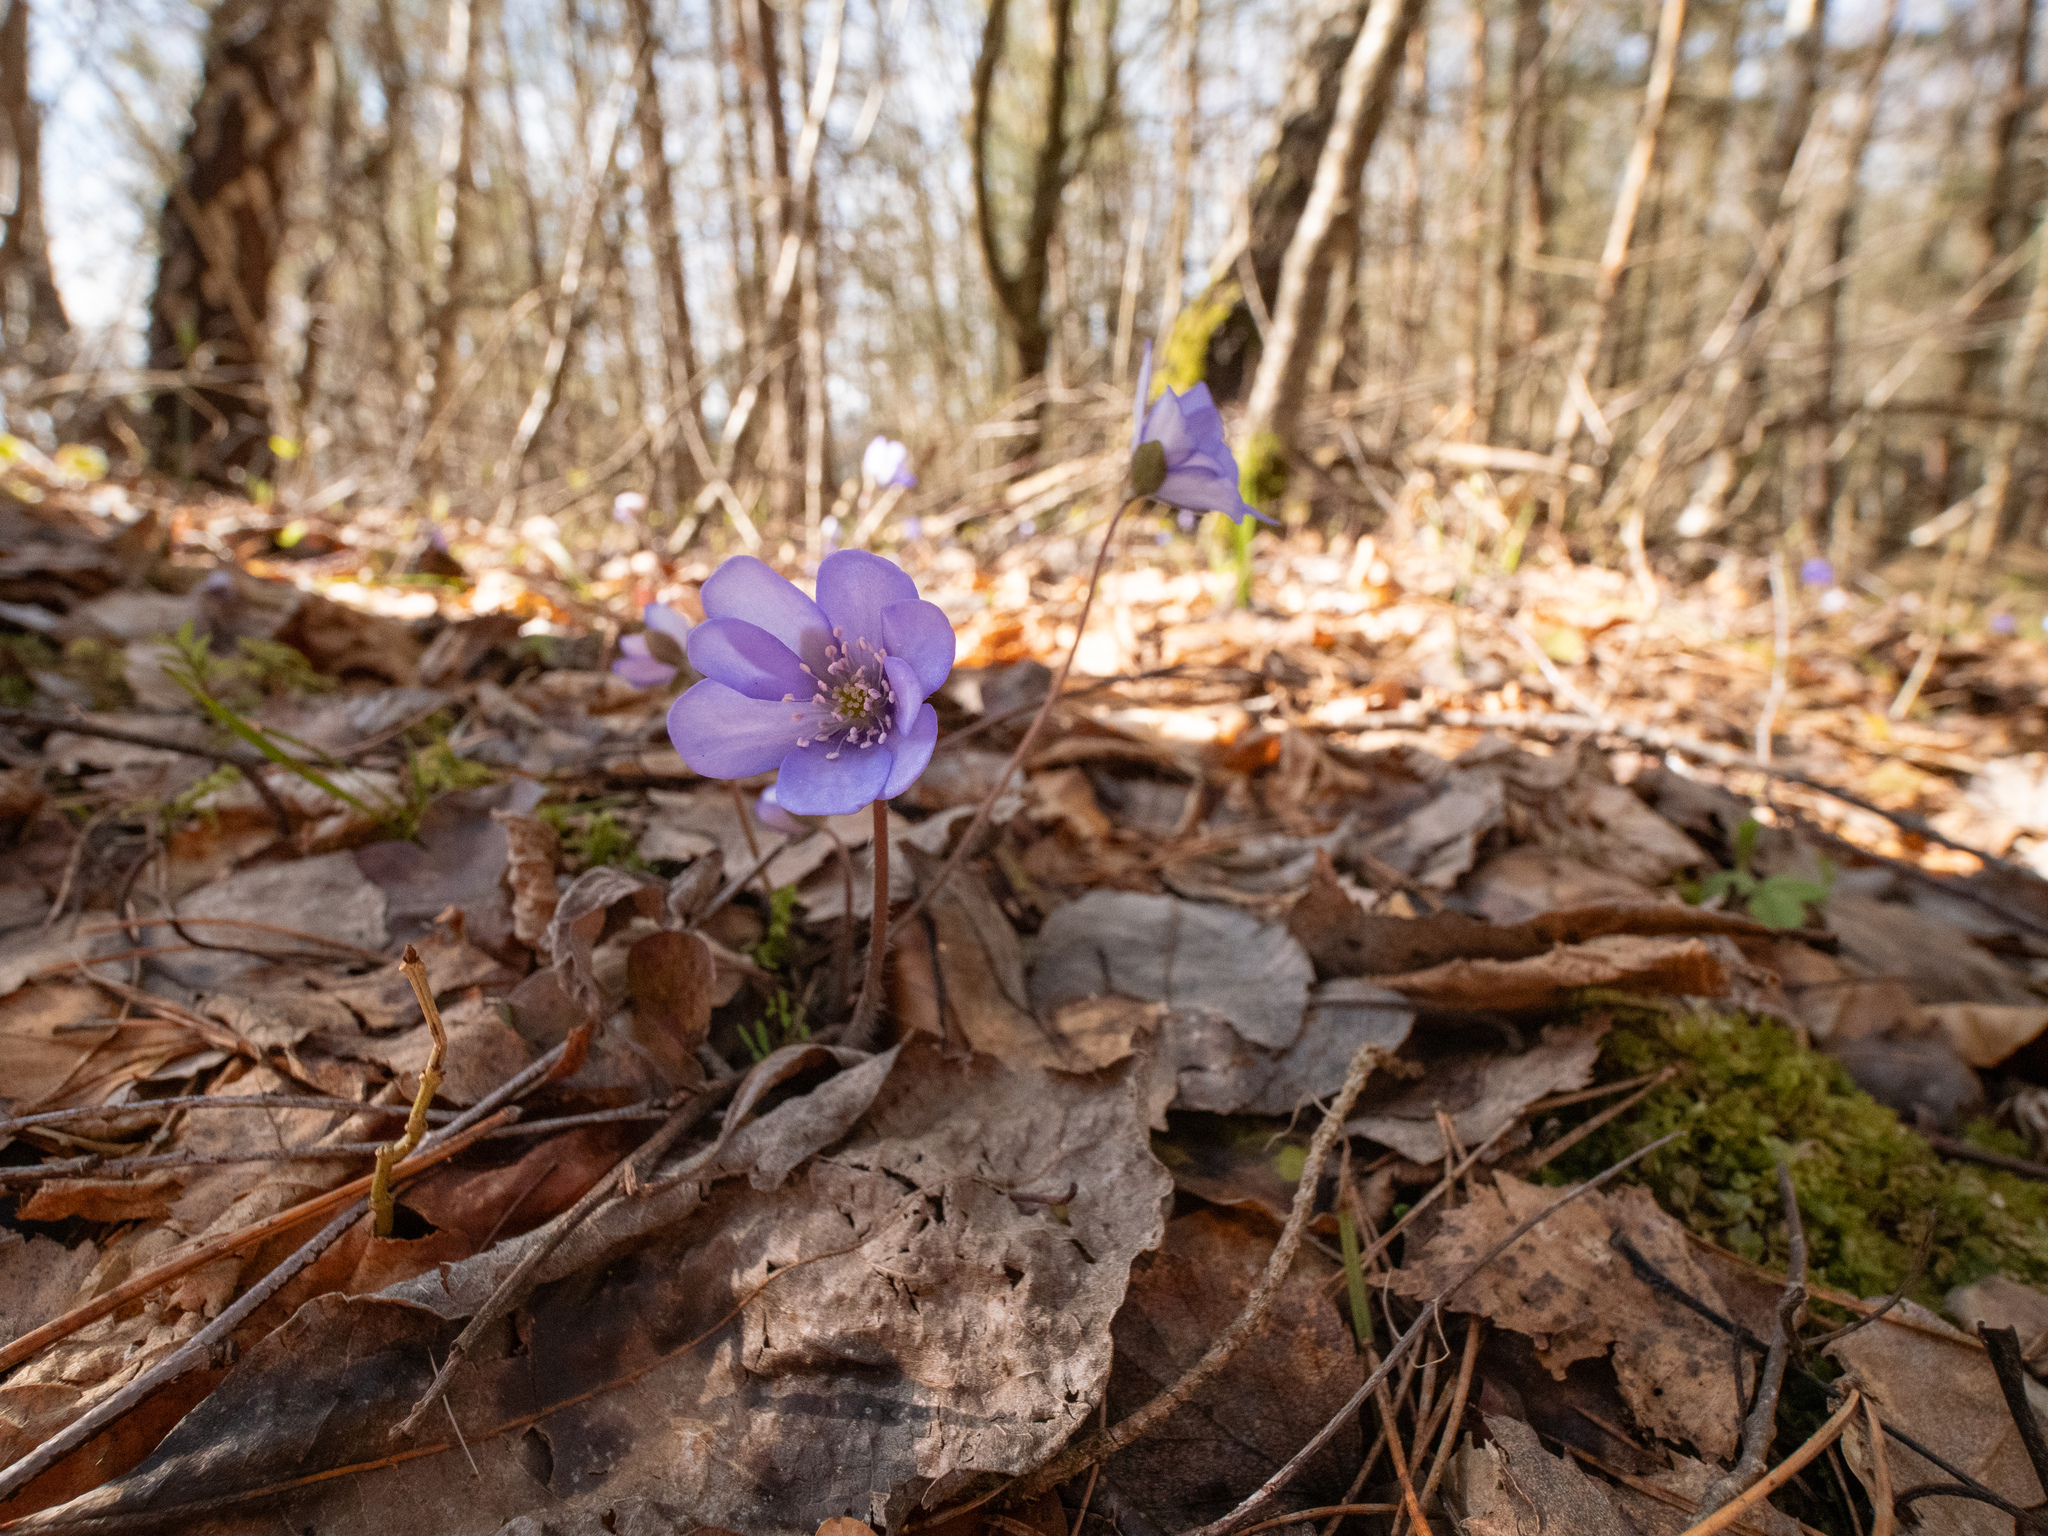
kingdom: Plantae
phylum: Tracheophyta
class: Magnoliopsida
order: Ranunculales
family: Ranunculaceae
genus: Hepatica
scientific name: Hepatica nobilis
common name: Liverleaf
